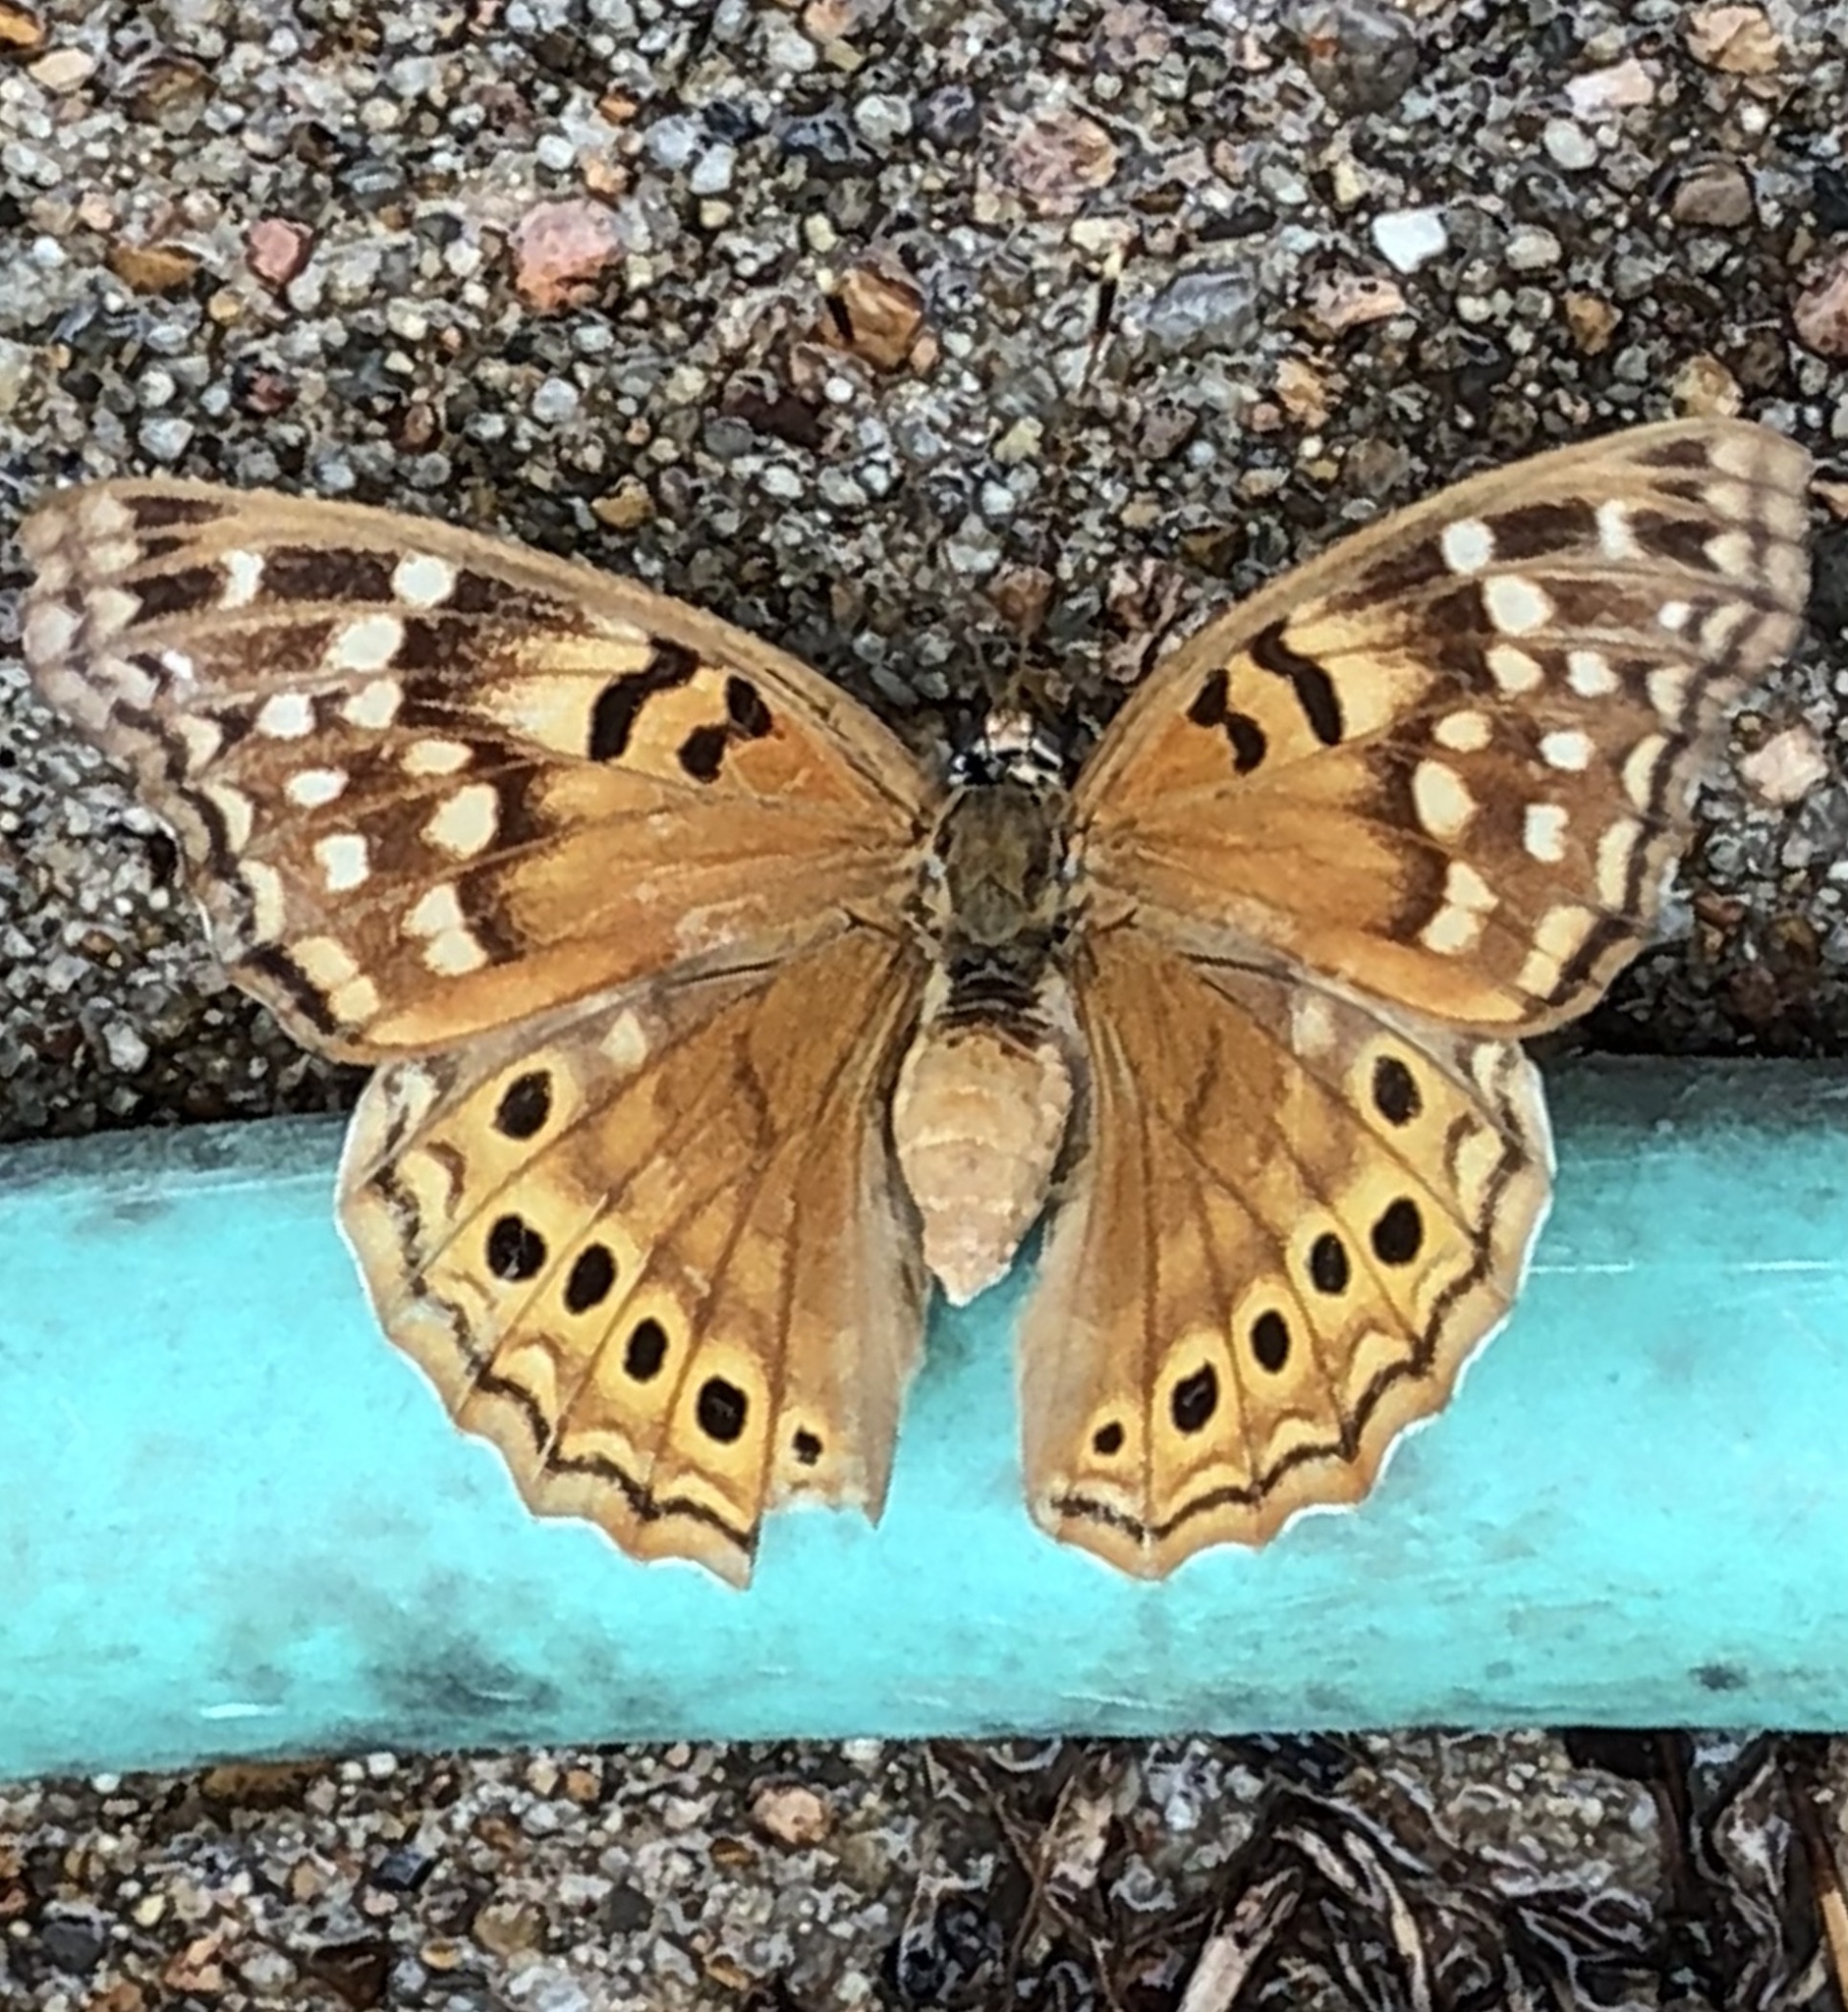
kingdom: Animalia
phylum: Arthropoda
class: Insecta
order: Lepidoptera
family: Nymphalidae
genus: Asterocampa
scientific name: Asterocampa clyton
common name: Tawny emperor
